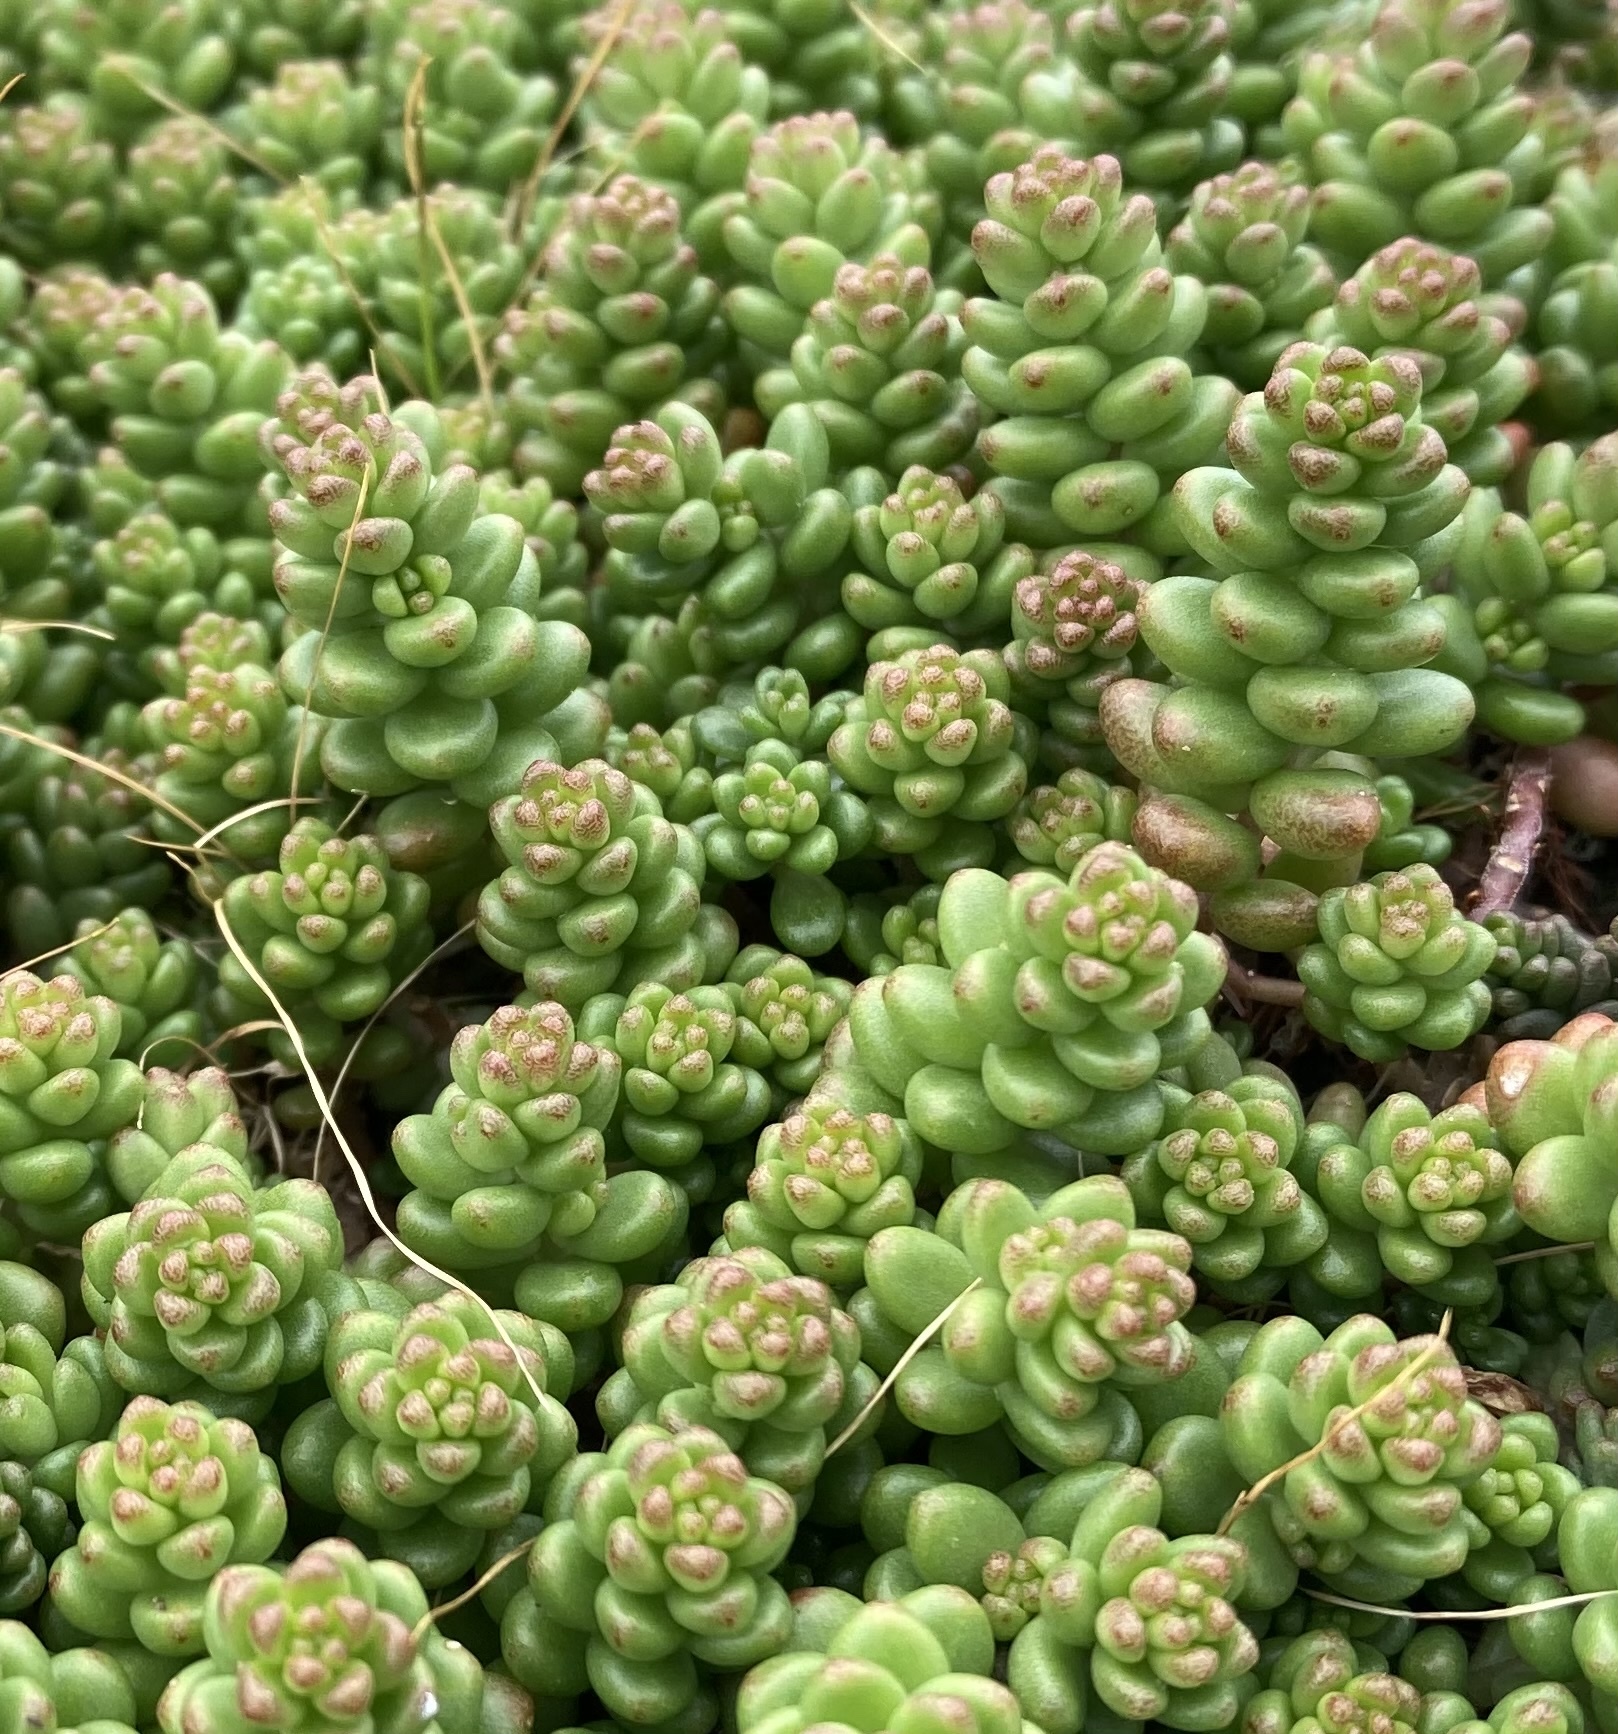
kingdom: Plantae
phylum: Tracheophyta
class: Magnoliopsida
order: Saxifragales
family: Crassulaceae
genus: Sedum
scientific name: Sedum album
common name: White stonecrop
